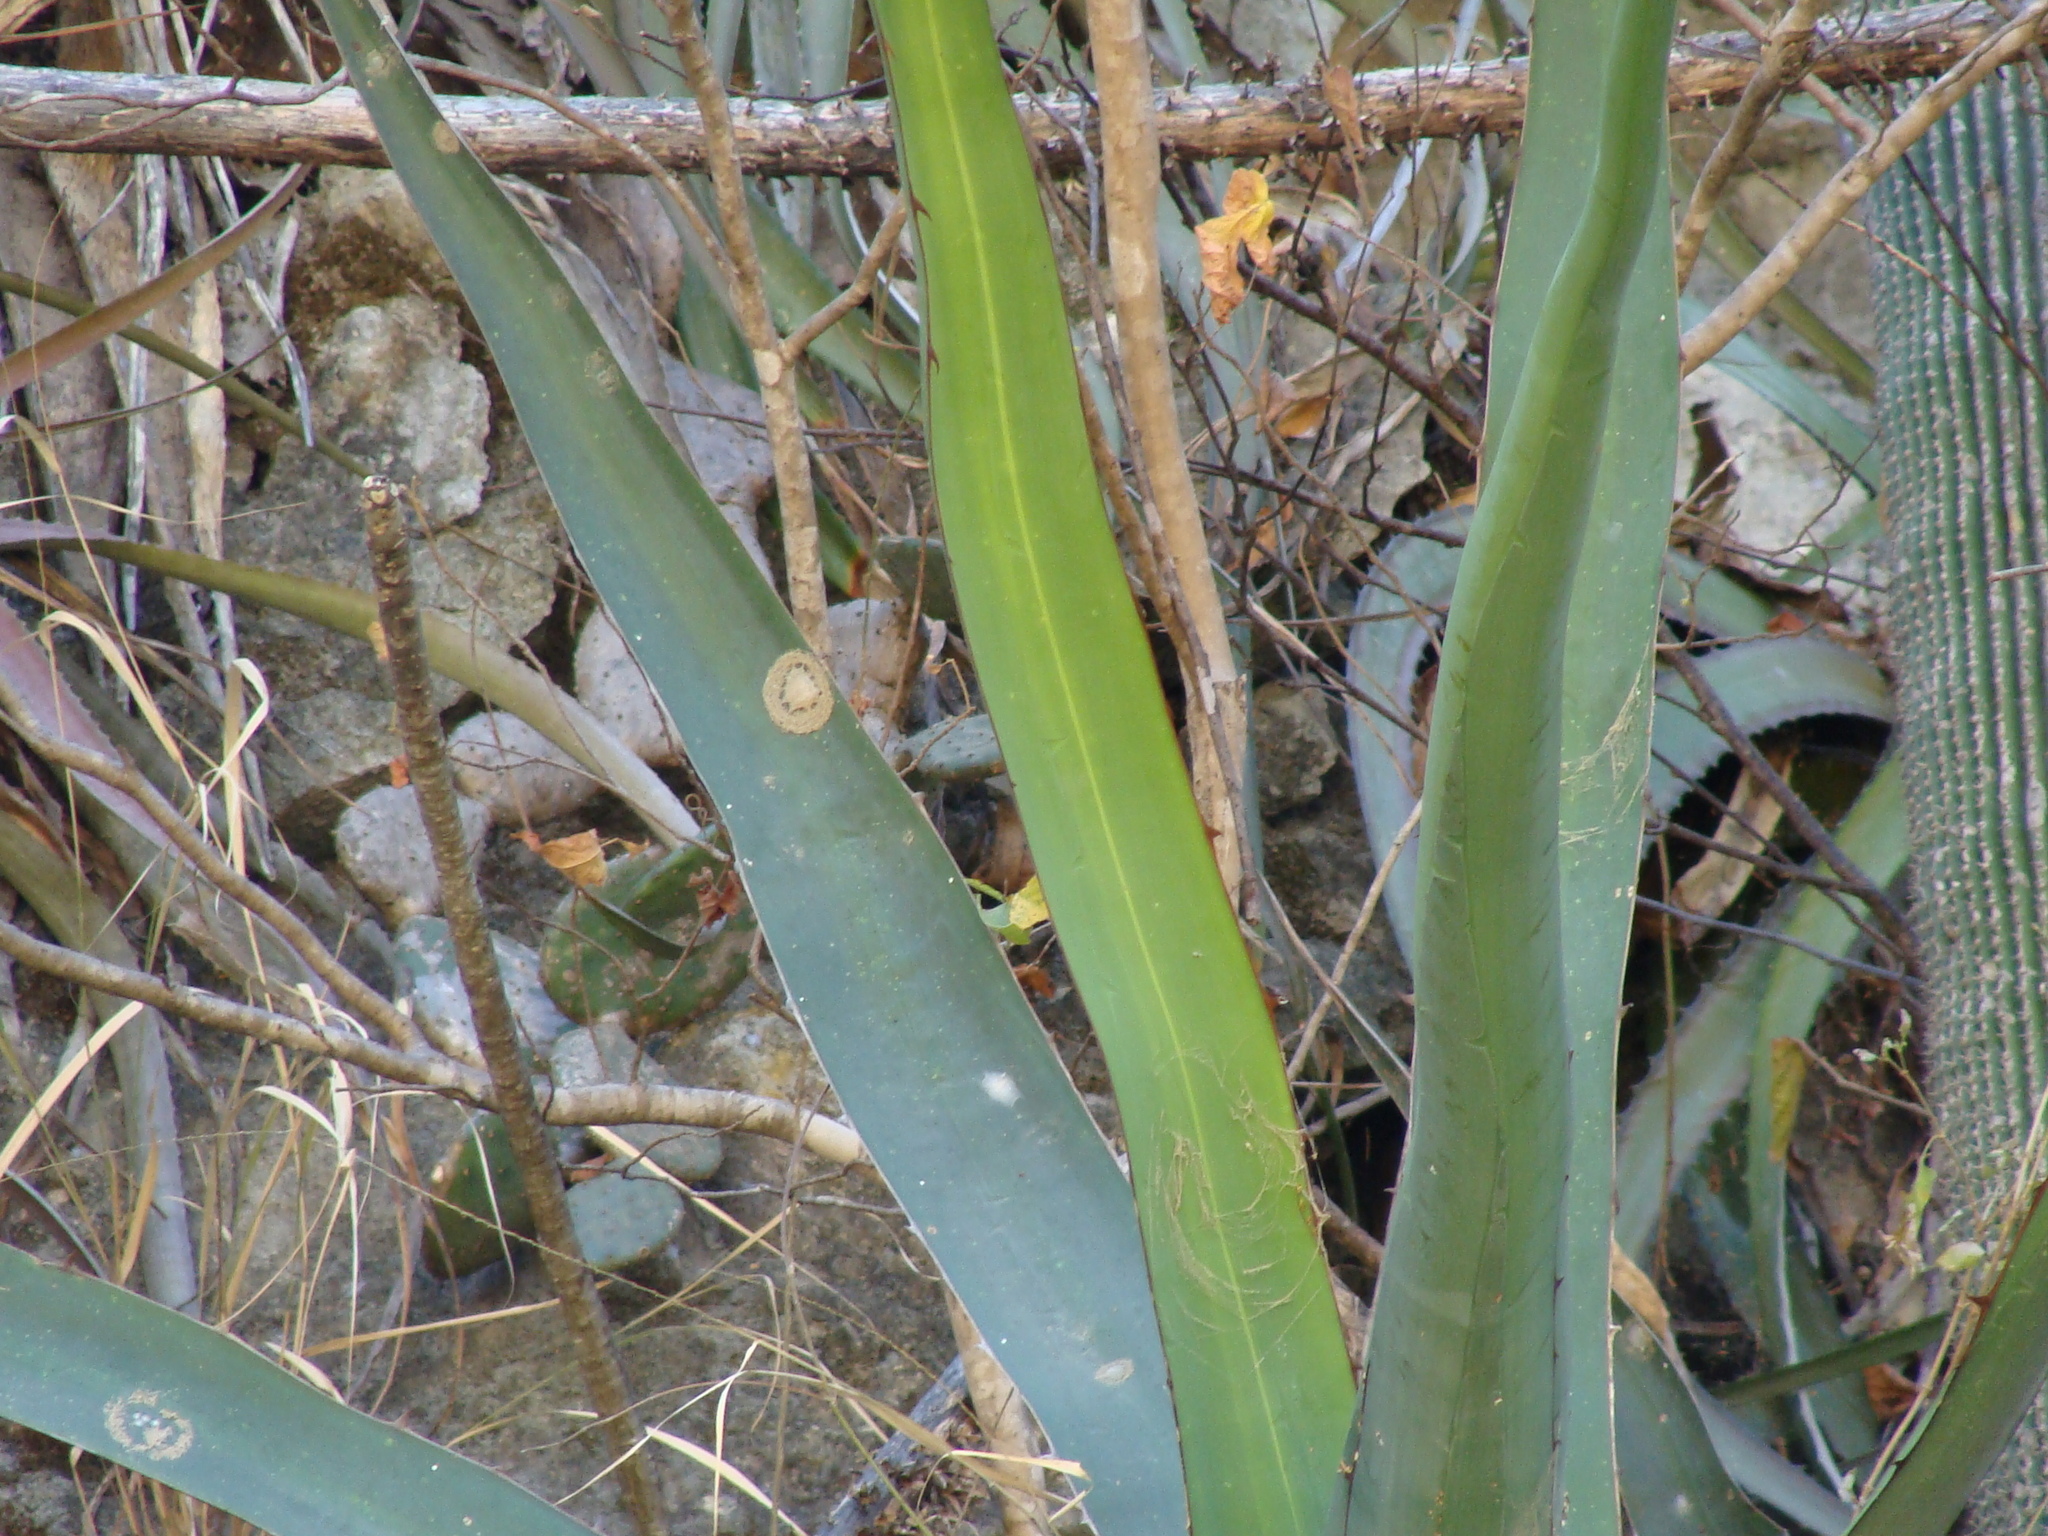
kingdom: Plantae
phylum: Tracheophyta
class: Liliopsida
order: Asparagales
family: Asparagaceae
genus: Agave
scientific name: Agave convallis
